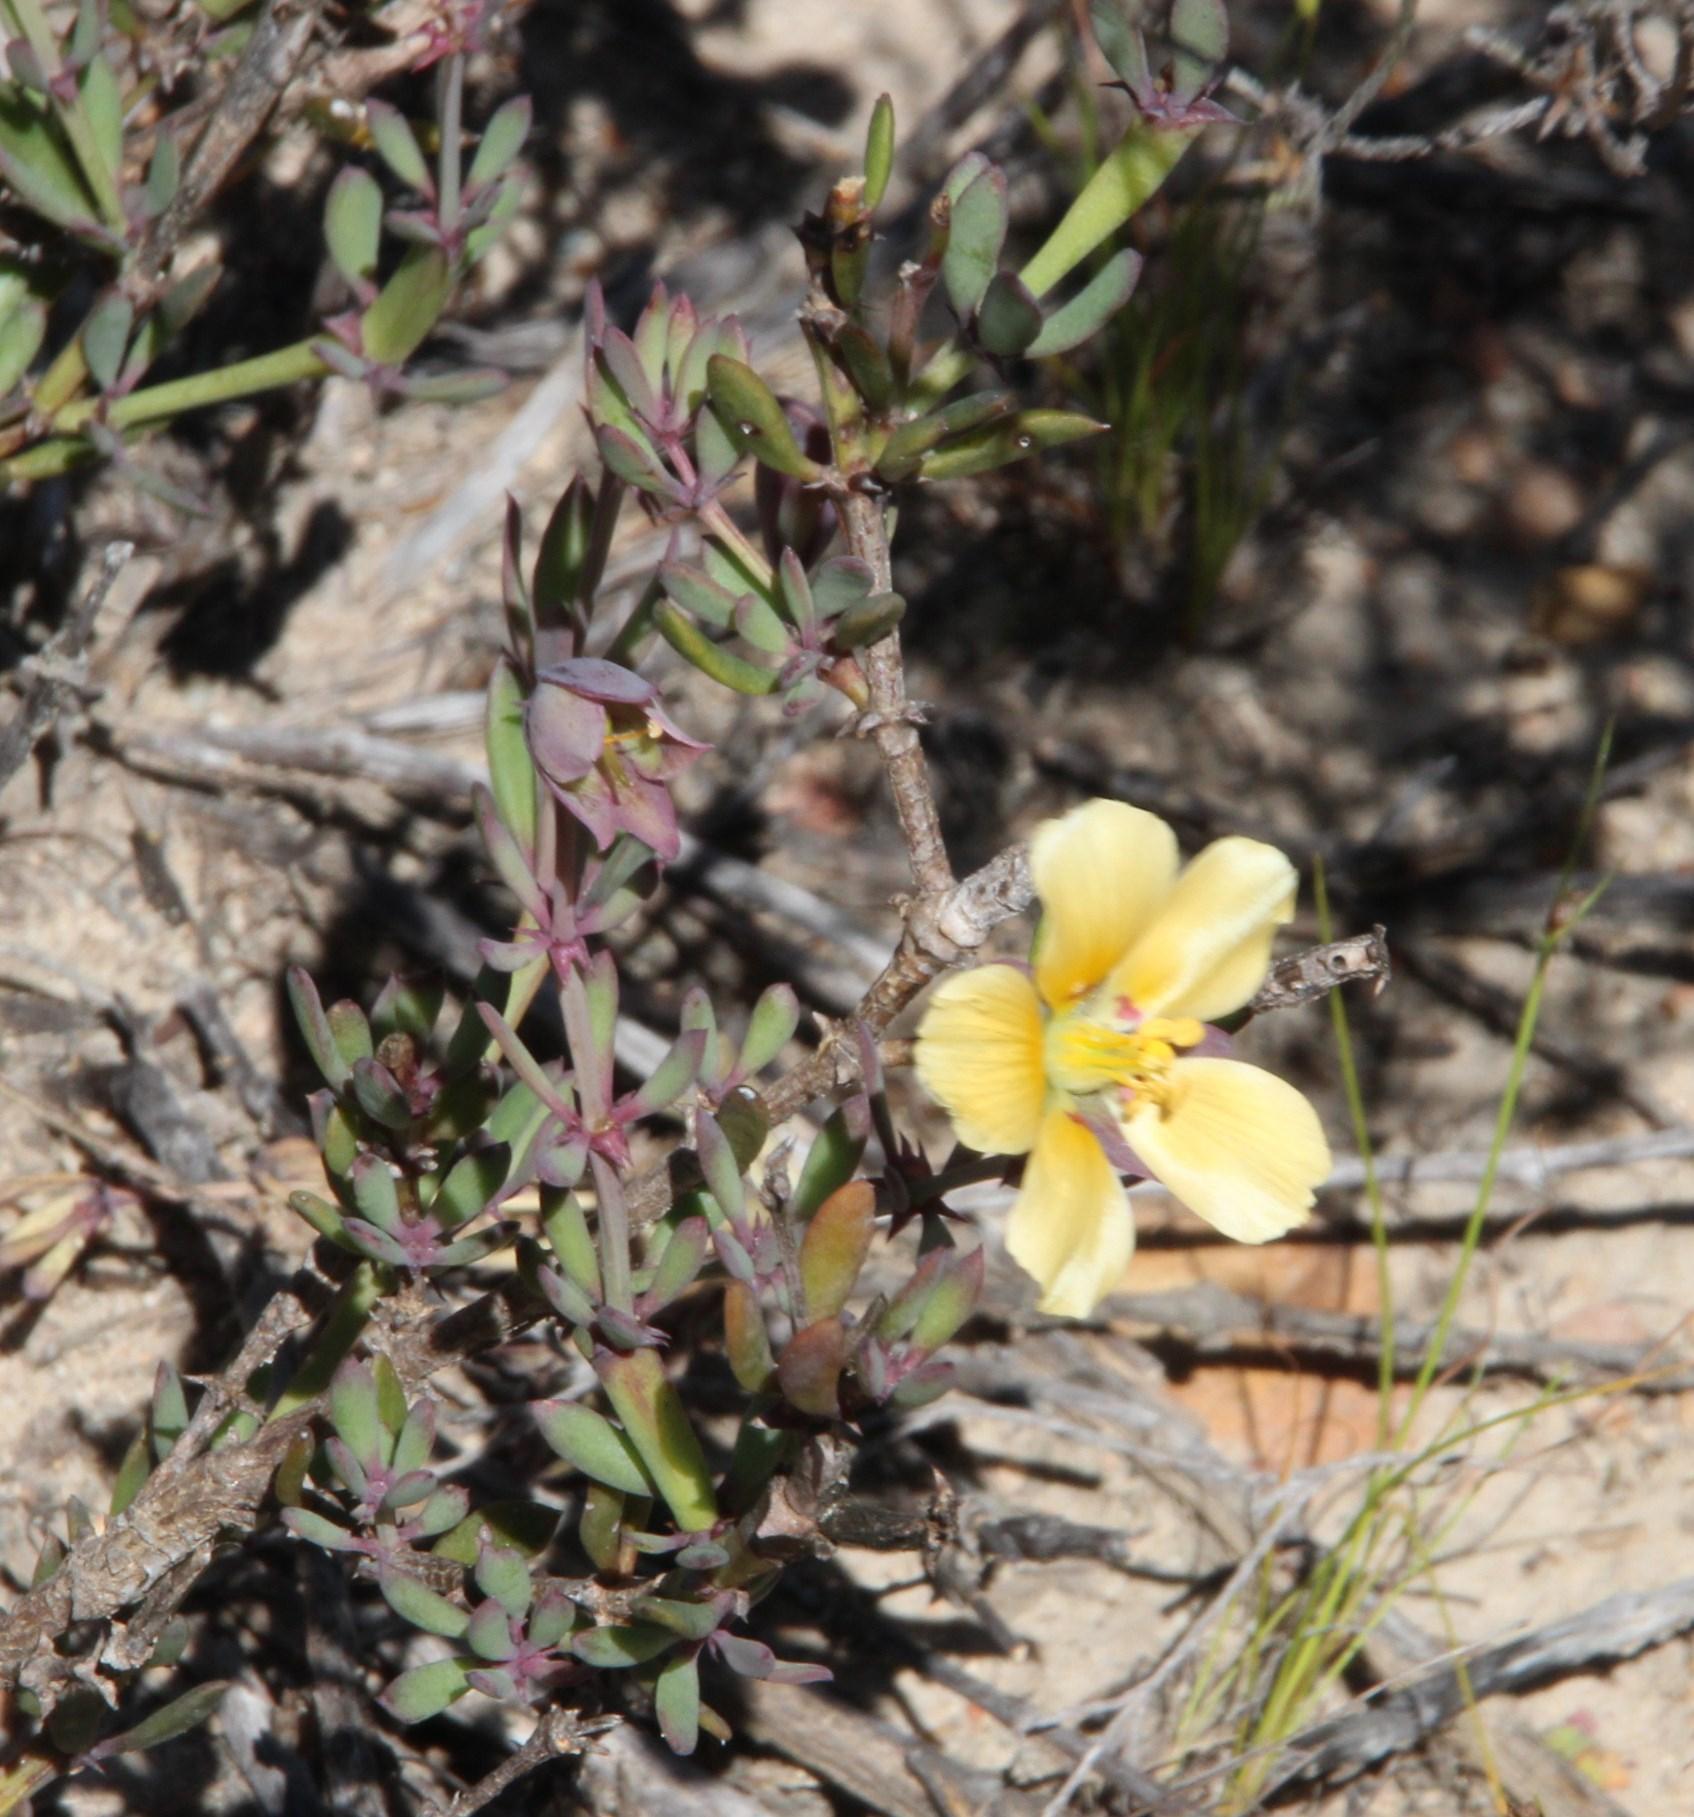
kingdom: Plantae
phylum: Tracheophyta
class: Magnoliopsida
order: Zygophyllales
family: Zygophyllaceae
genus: Roepera
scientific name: Roepera fulva
